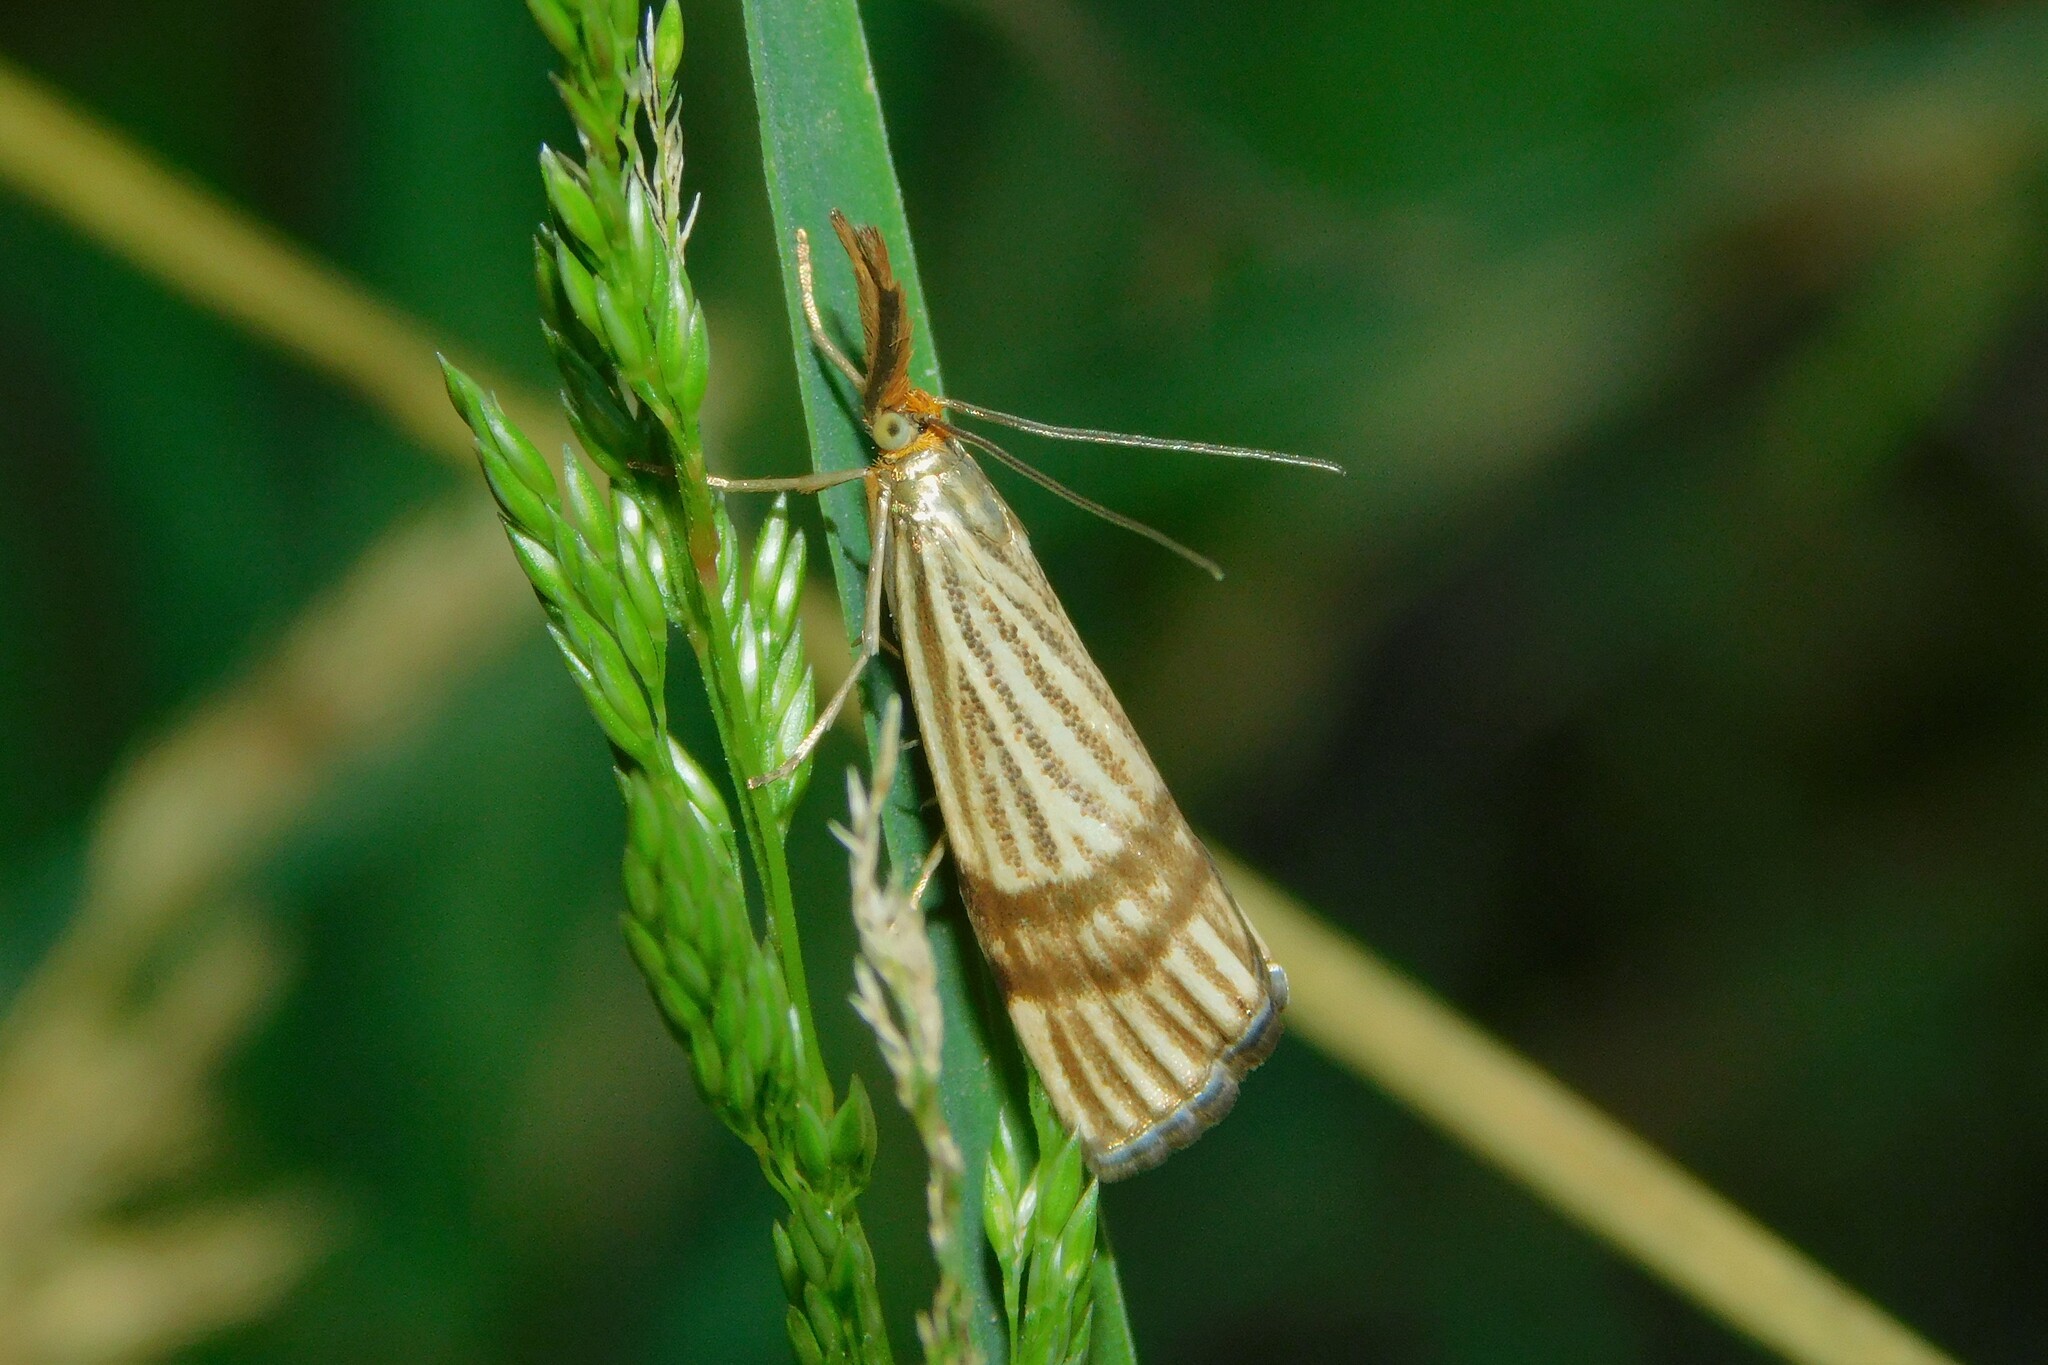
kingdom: Animalia
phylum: Arthropoda
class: Insecta
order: Lepidoptera
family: Crambidae
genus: Chrysocrambus
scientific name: Chrysocrambus linetella
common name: Orange-bar grass-veneer
